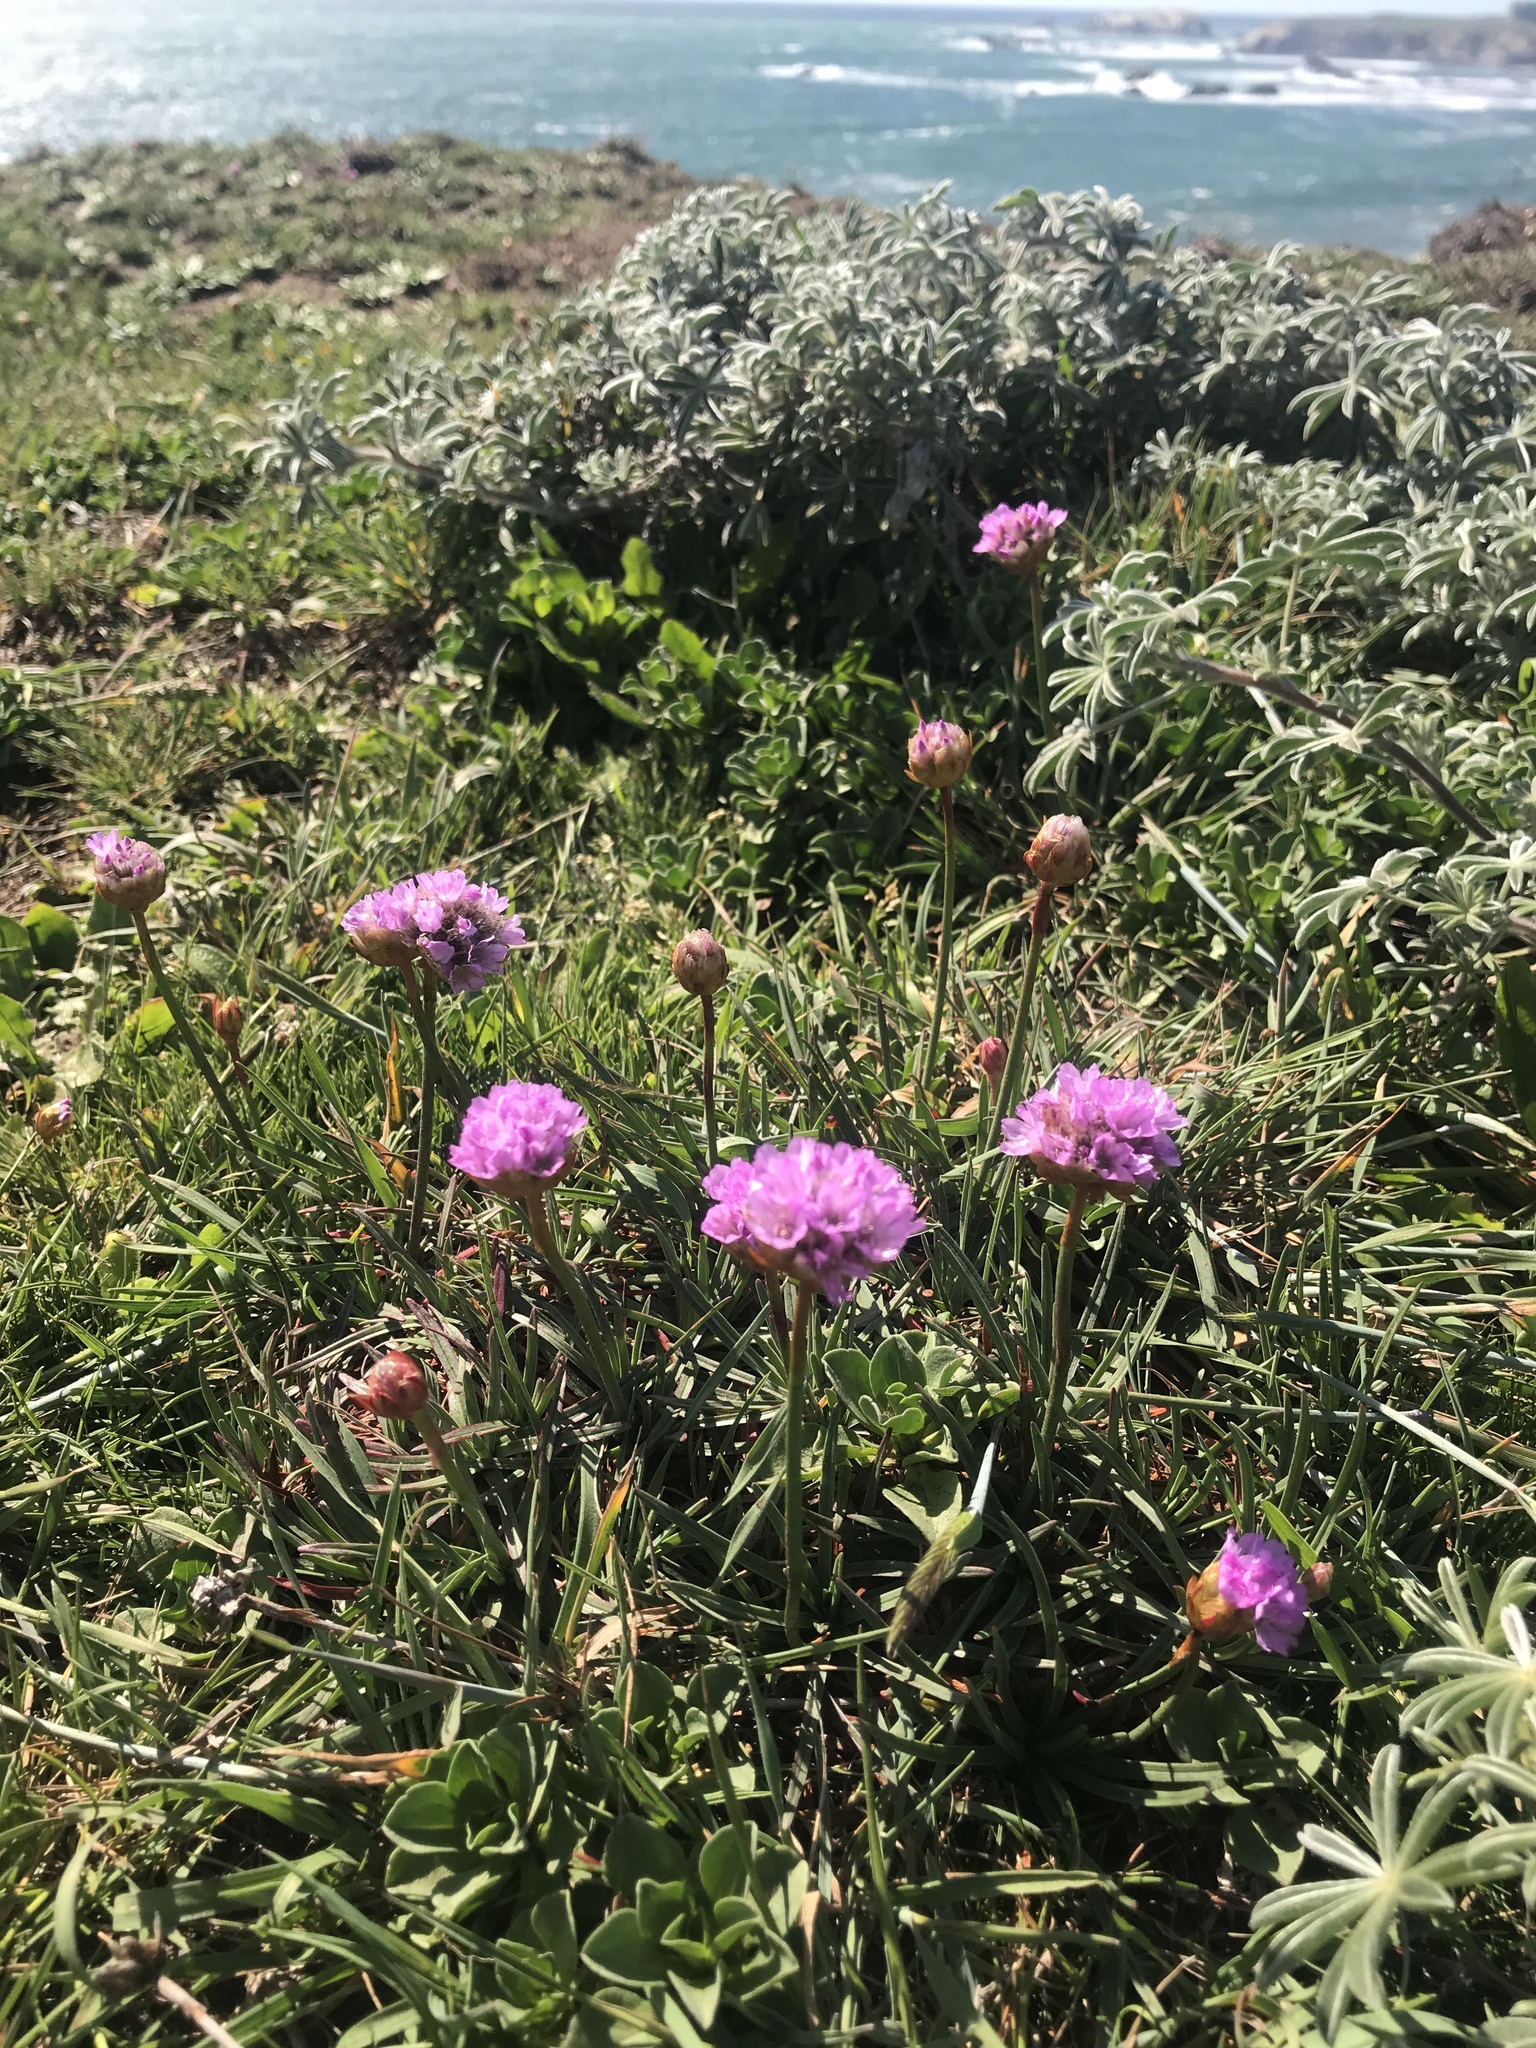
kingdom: Plantae
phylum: Tracheophyta
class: Magnoliopsida
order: Caryophyllales
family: Plumbaginaceae
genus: Armeria
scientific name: Armeria maritima
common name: Thrift
